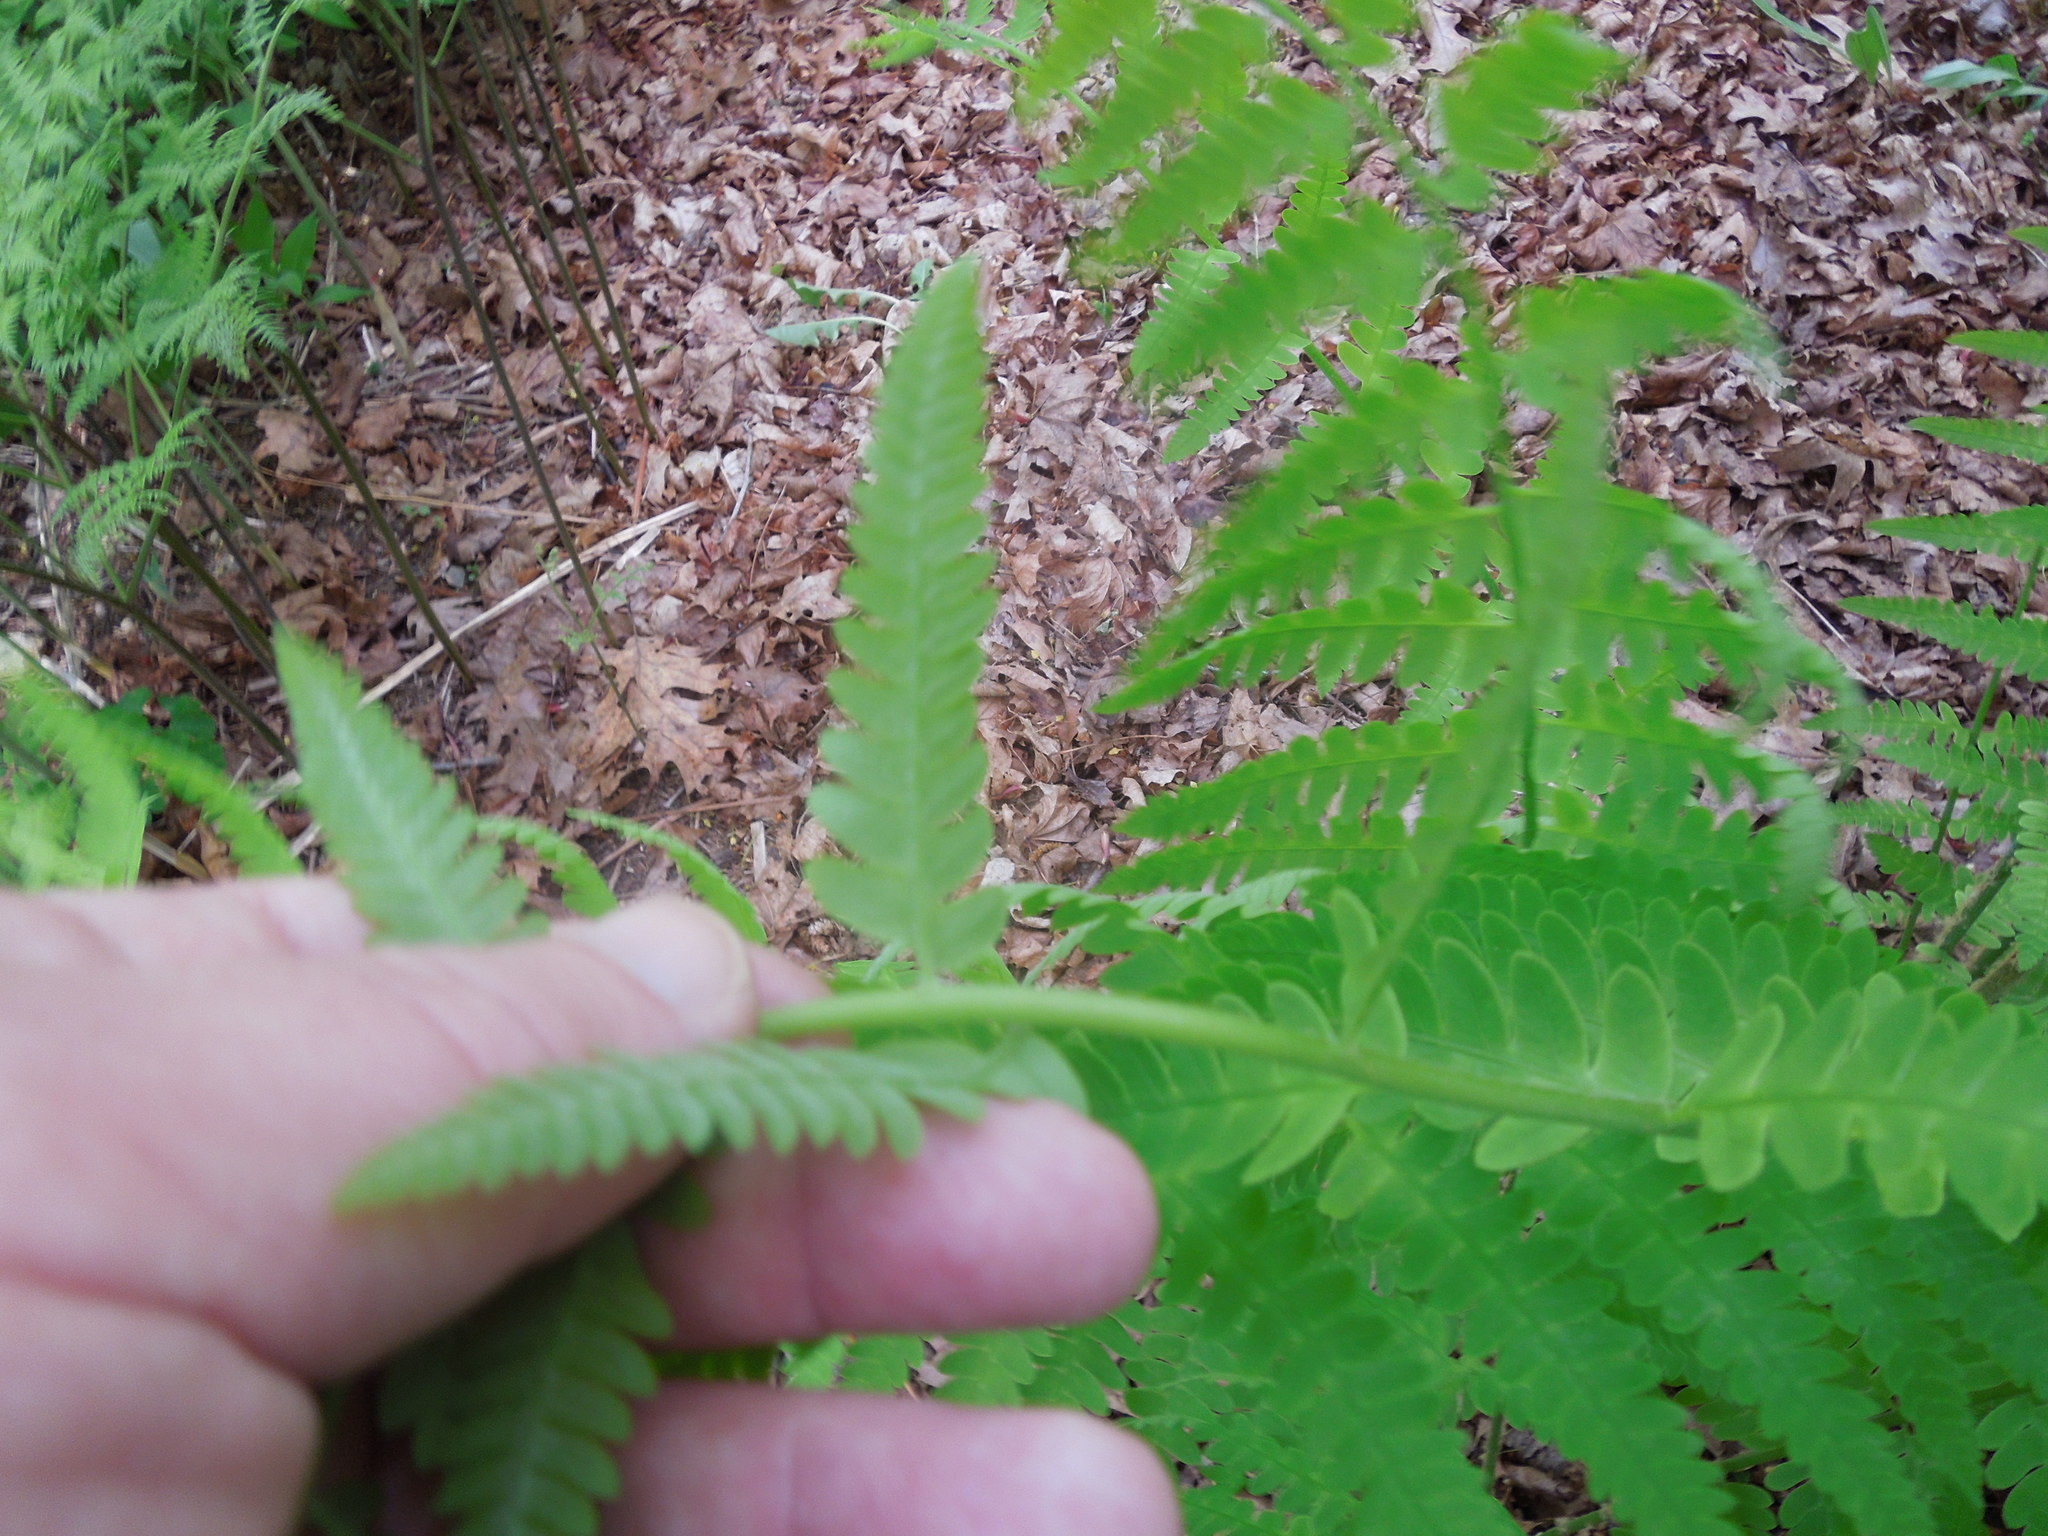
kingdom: Plantae
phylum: Tracheophyta
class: Polypodiopsida
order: Osmundales
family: Osmundaceae
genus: Claytosmunda
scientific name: Claytosmunda claytoniana
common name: Clayton's fern
